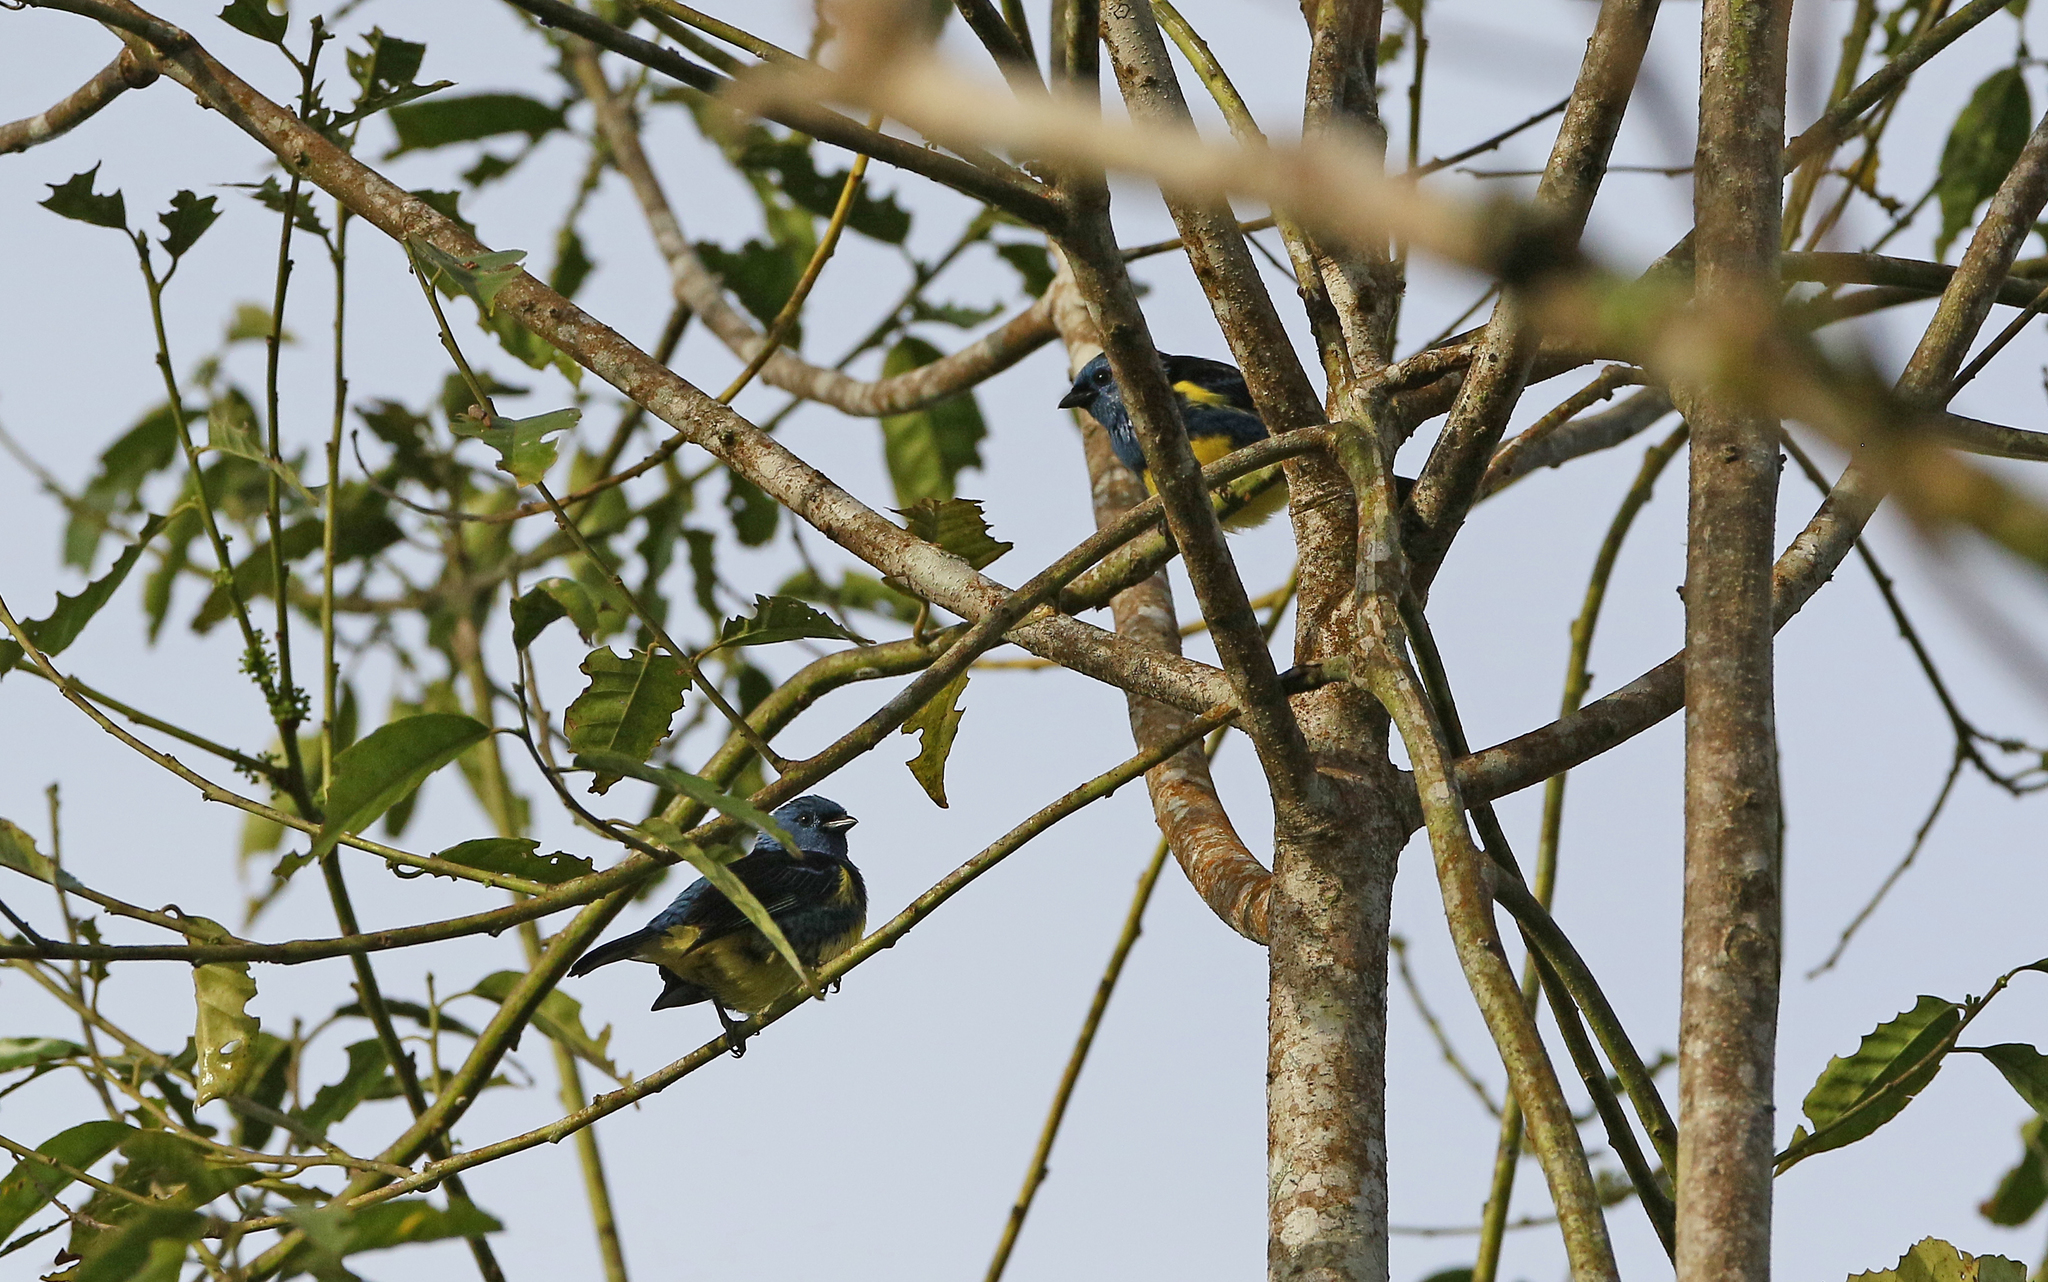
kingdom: Animalia
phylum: Chordata
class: Aves
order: Passeriformes
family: Thraupidae
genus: Tangara
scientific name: Tangara mexicana
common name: Turquoise tanager
